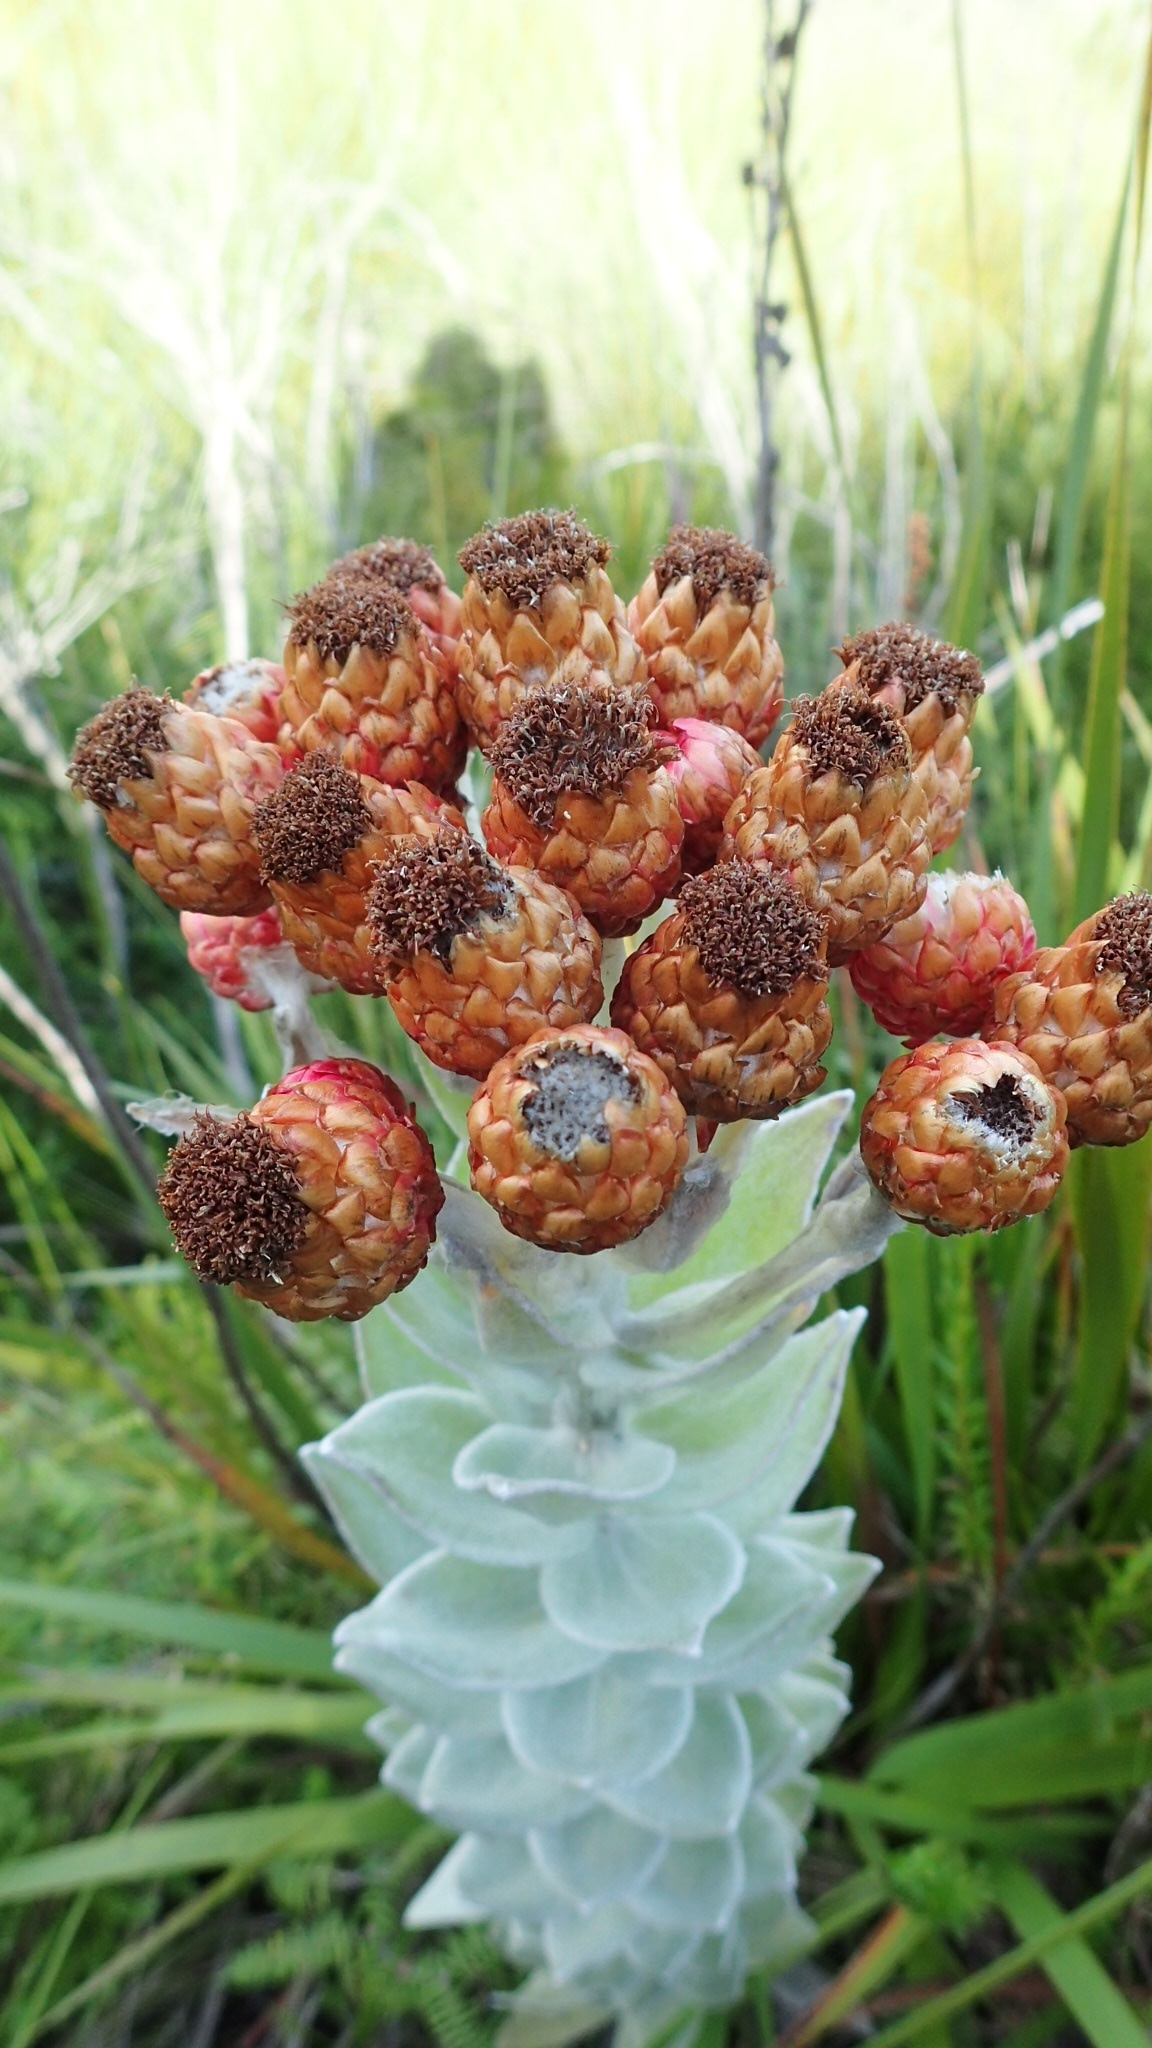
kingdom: Plantae
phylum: Tracheophyta
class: Magnoliopsida
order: Asterales
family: Asteraceae
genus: Syncarpha
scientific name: Syncarpha eximia
